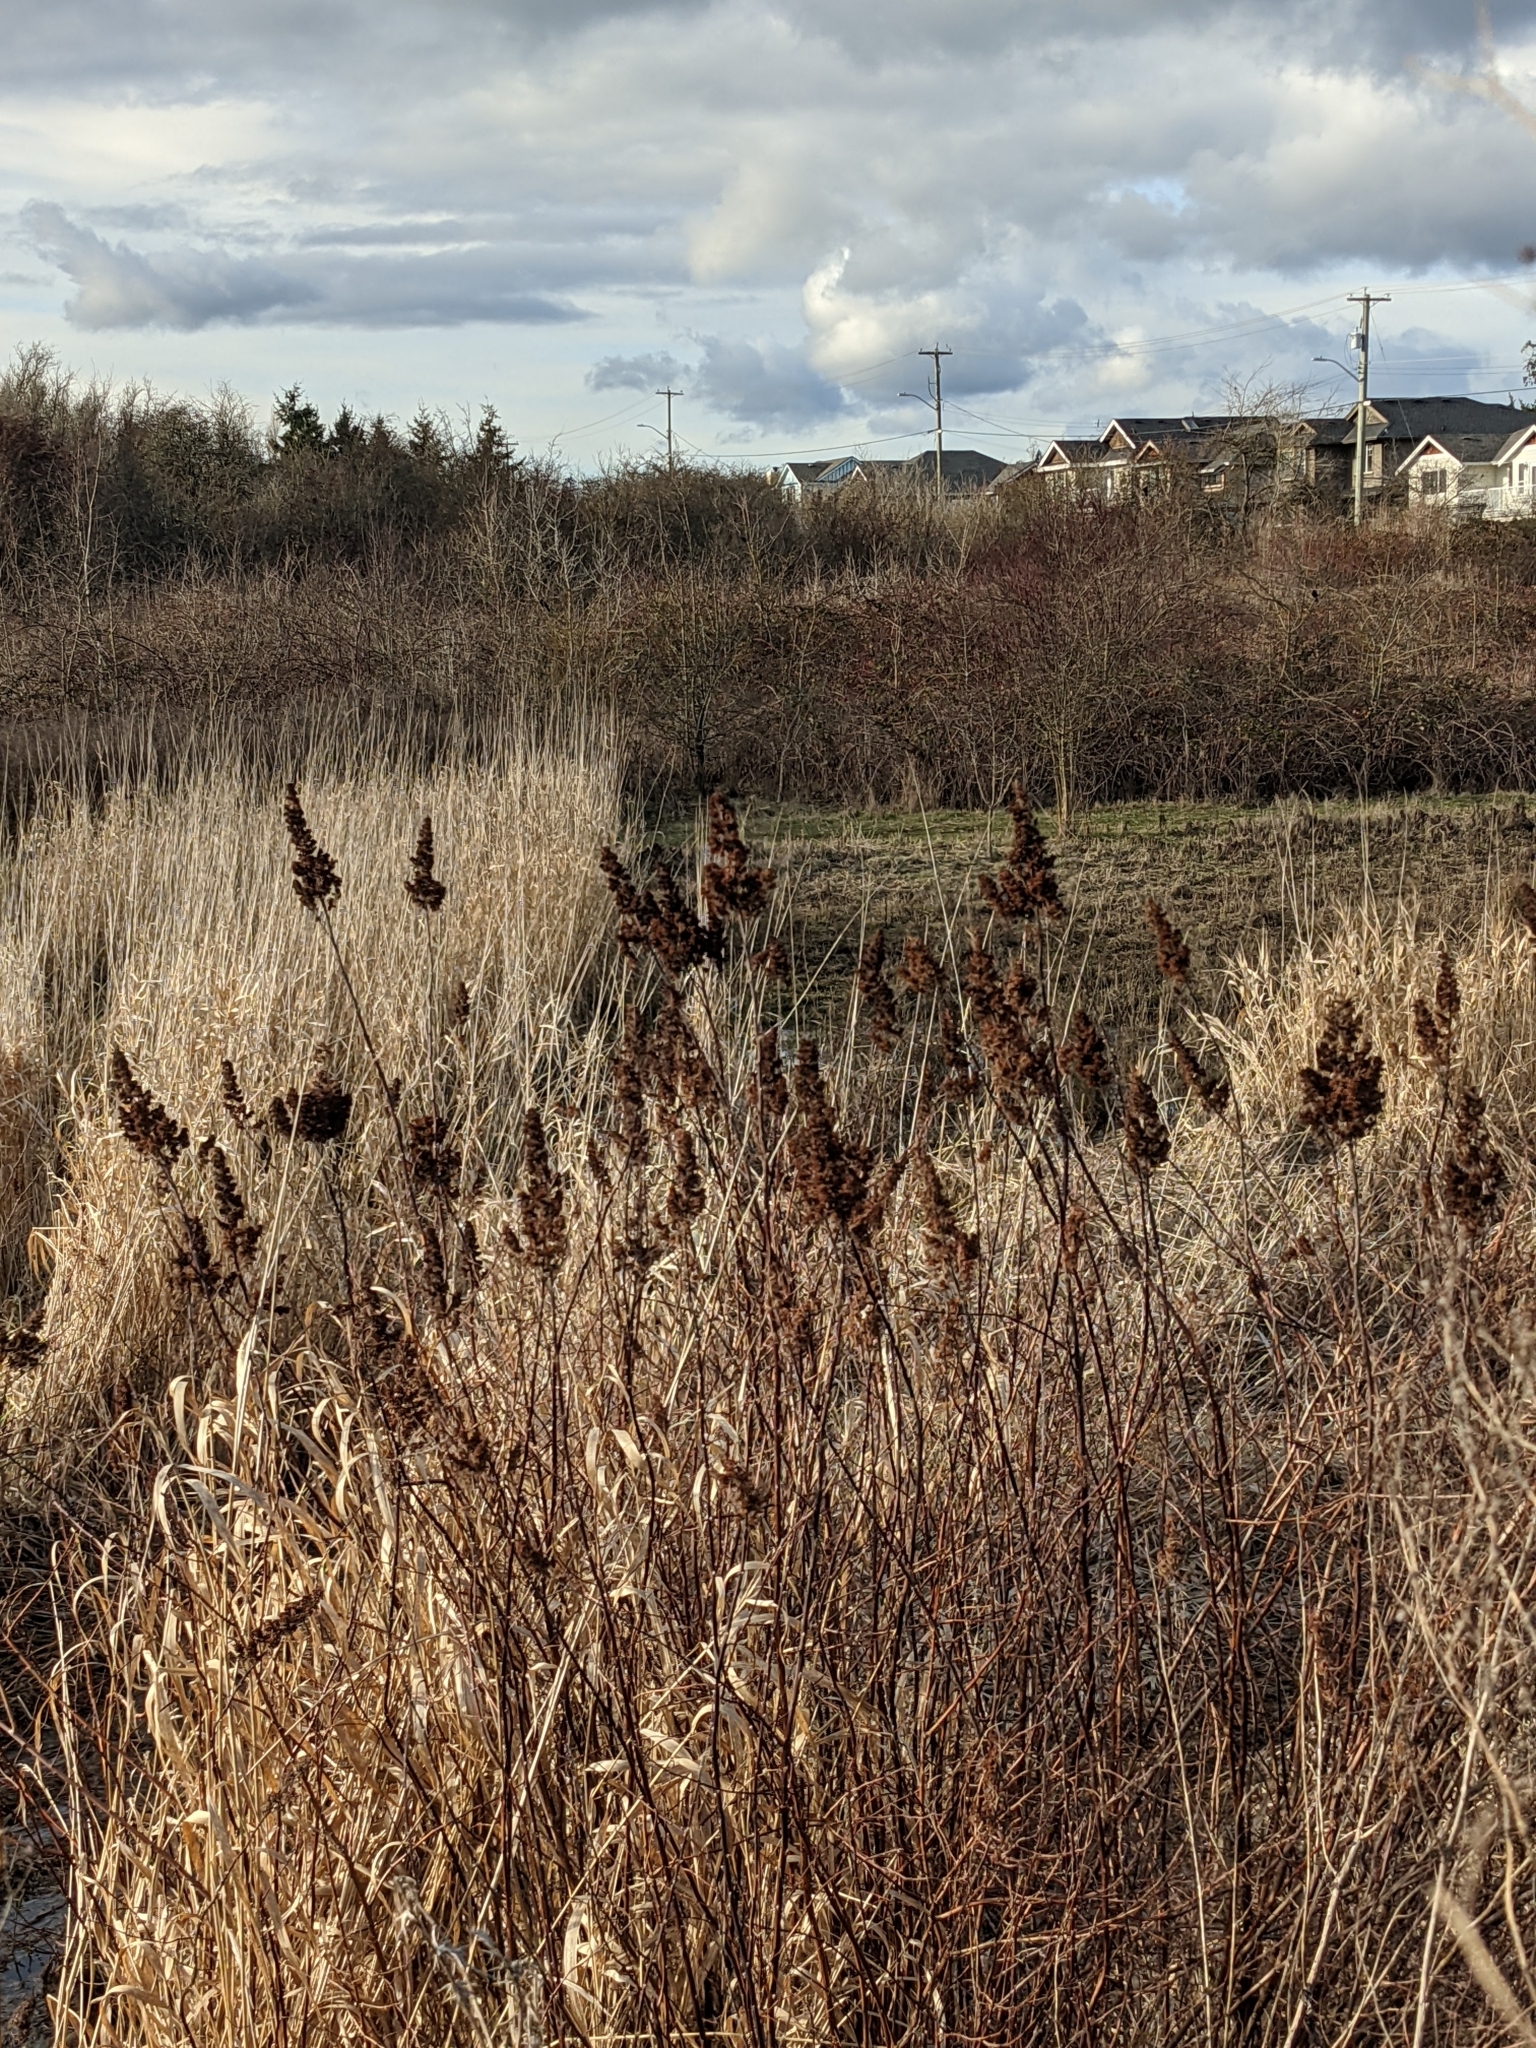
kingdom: Plantae
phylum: Tracheophyta
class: Magnoliopsida
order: Rosales
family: Rosaceae
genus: Spiraea
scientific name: Spiraea douglasii
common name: Steeplebush
